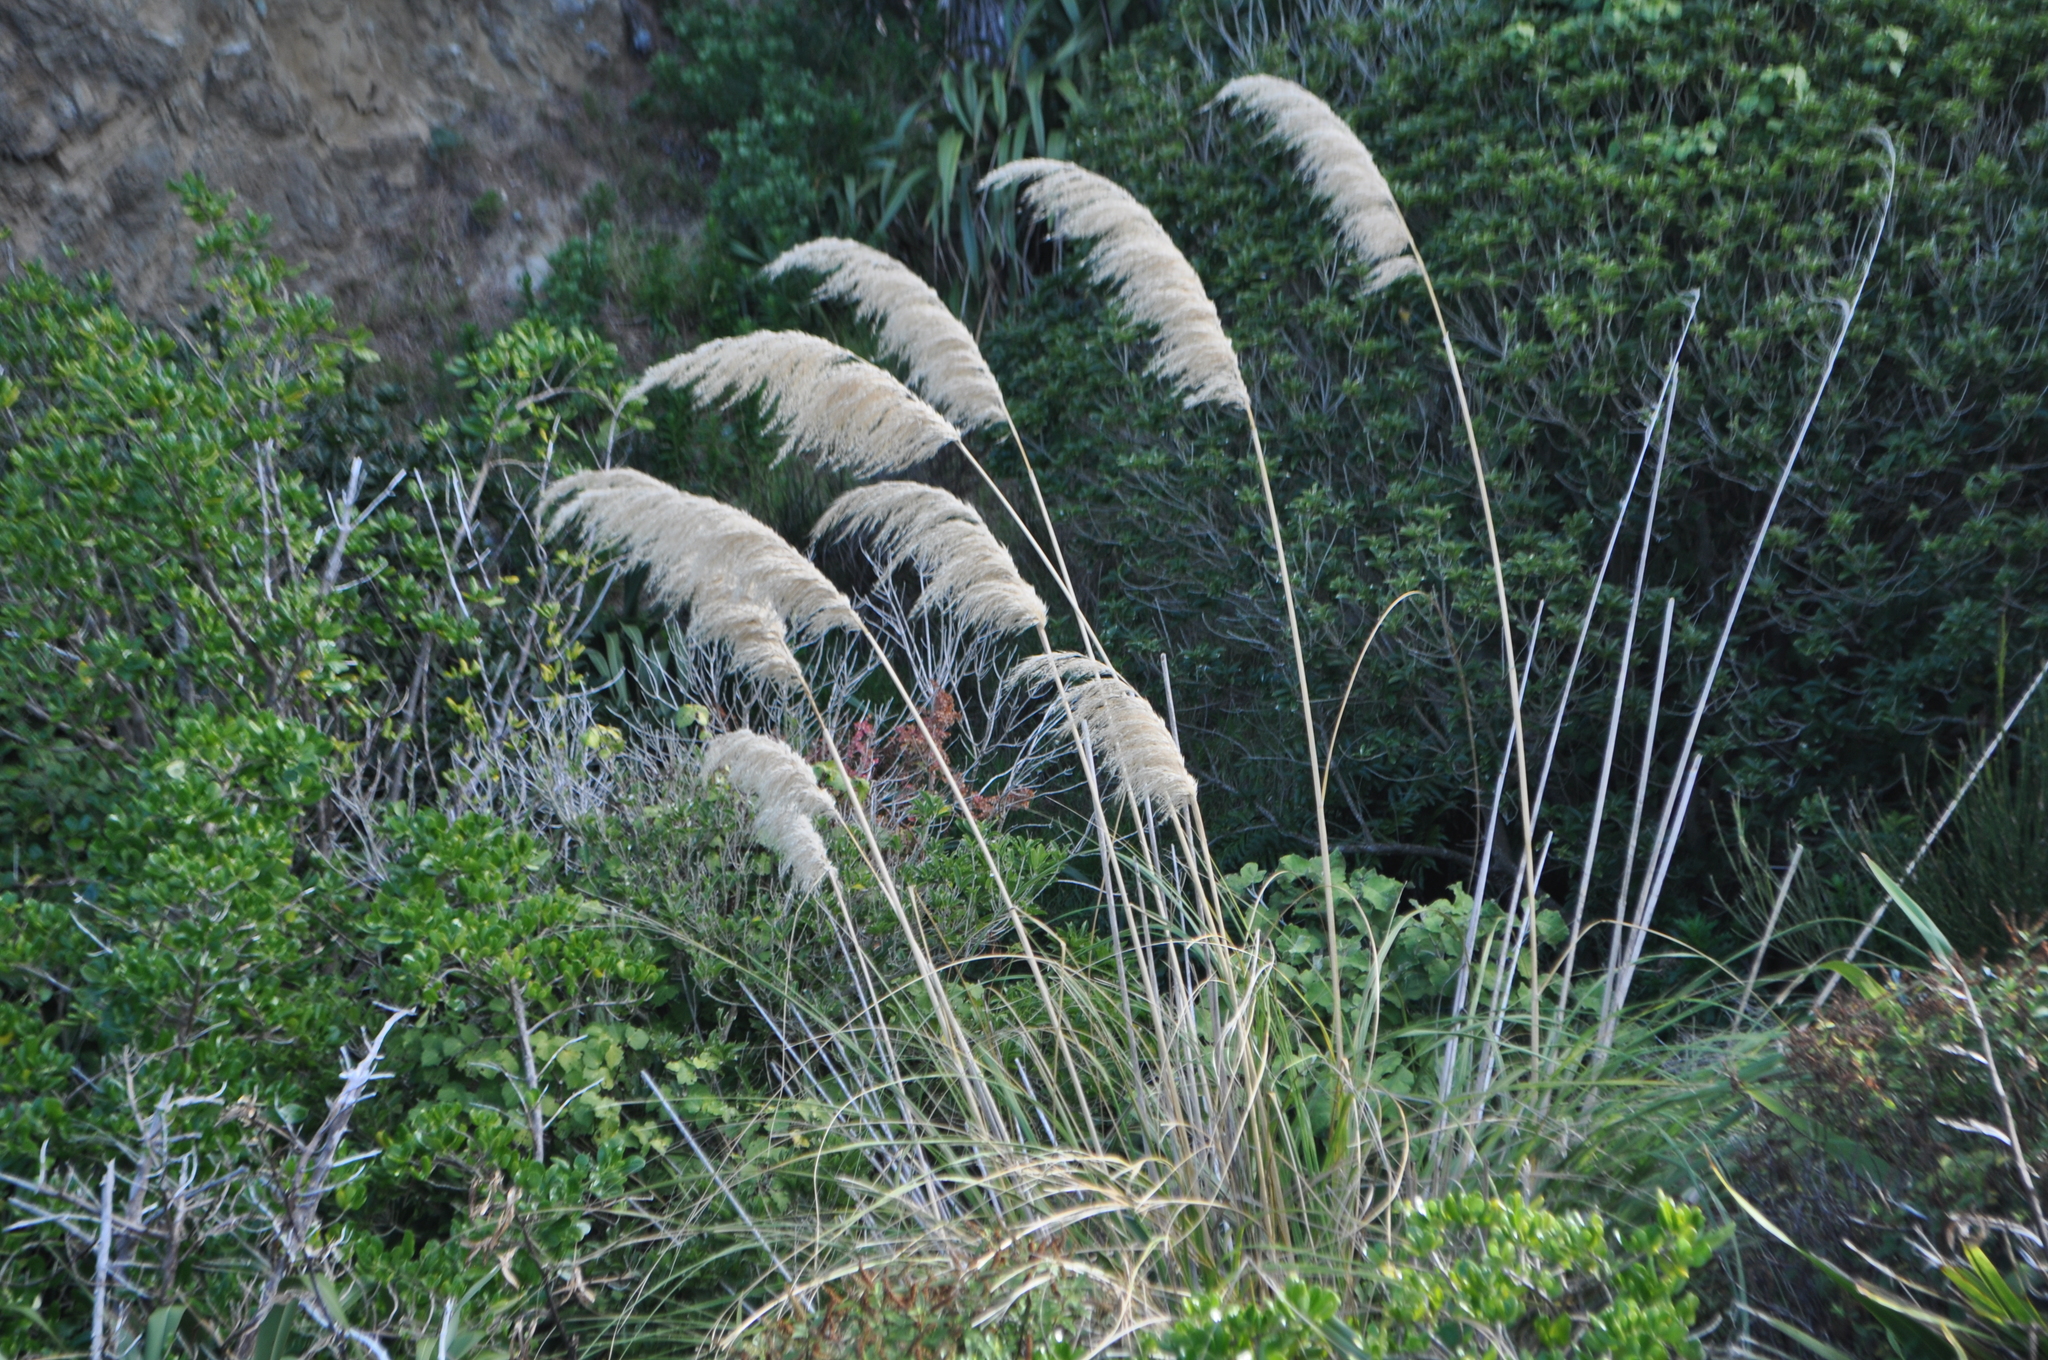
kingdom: Plantae
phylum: Tracheophyta
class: Liliopsida
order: Poales
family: Poaceae
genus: Austroderia
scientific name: Austroderia toetoe
